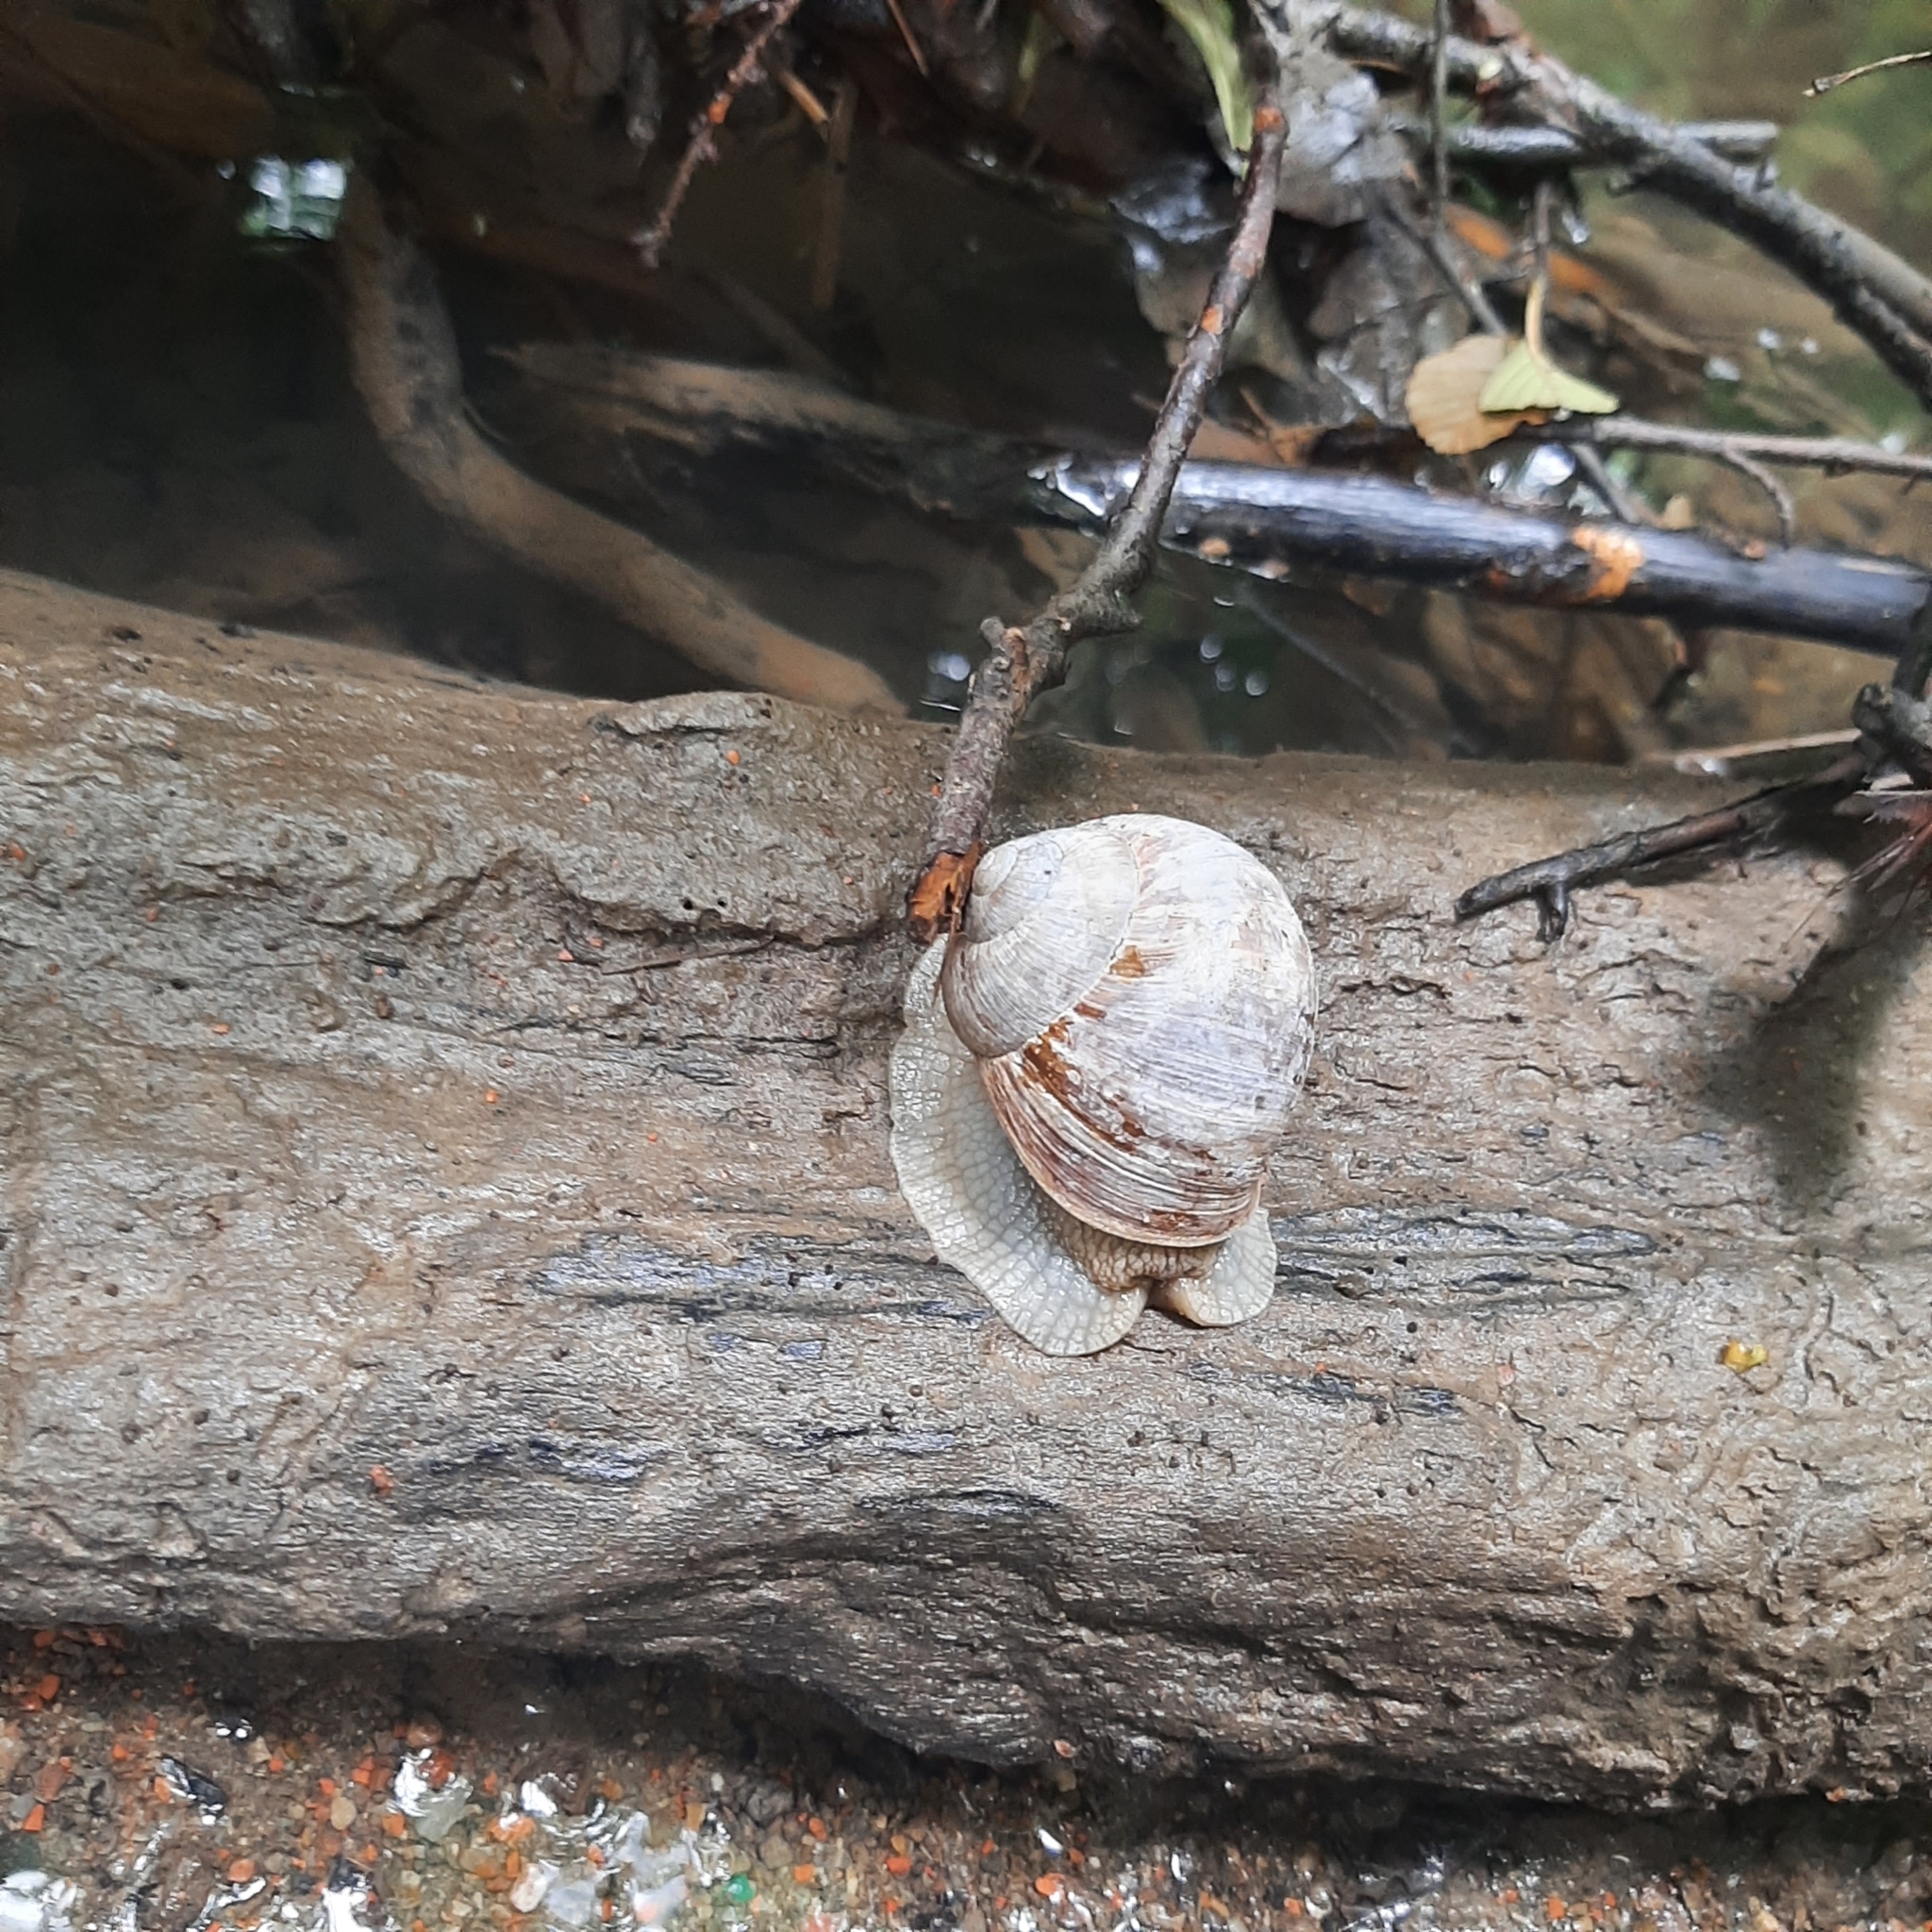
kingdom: Animalia
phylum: Mollusca
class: Gastropoda
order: Stylommatophora
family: Helicidae
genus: Helix
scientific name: Helix pomatia
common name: Roman snail
